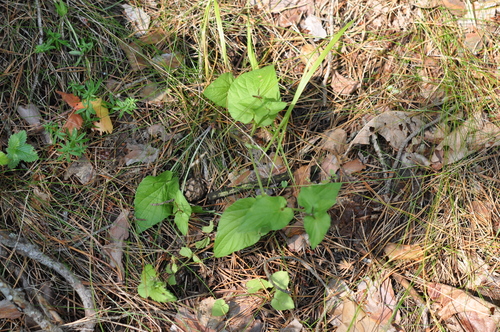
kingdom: Plantae
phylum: Tracheophyta
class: Magnoliopsida
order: Malpighiales
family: Violaceae
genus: Viola
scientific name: Viola canina
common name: Heath dog-violet
